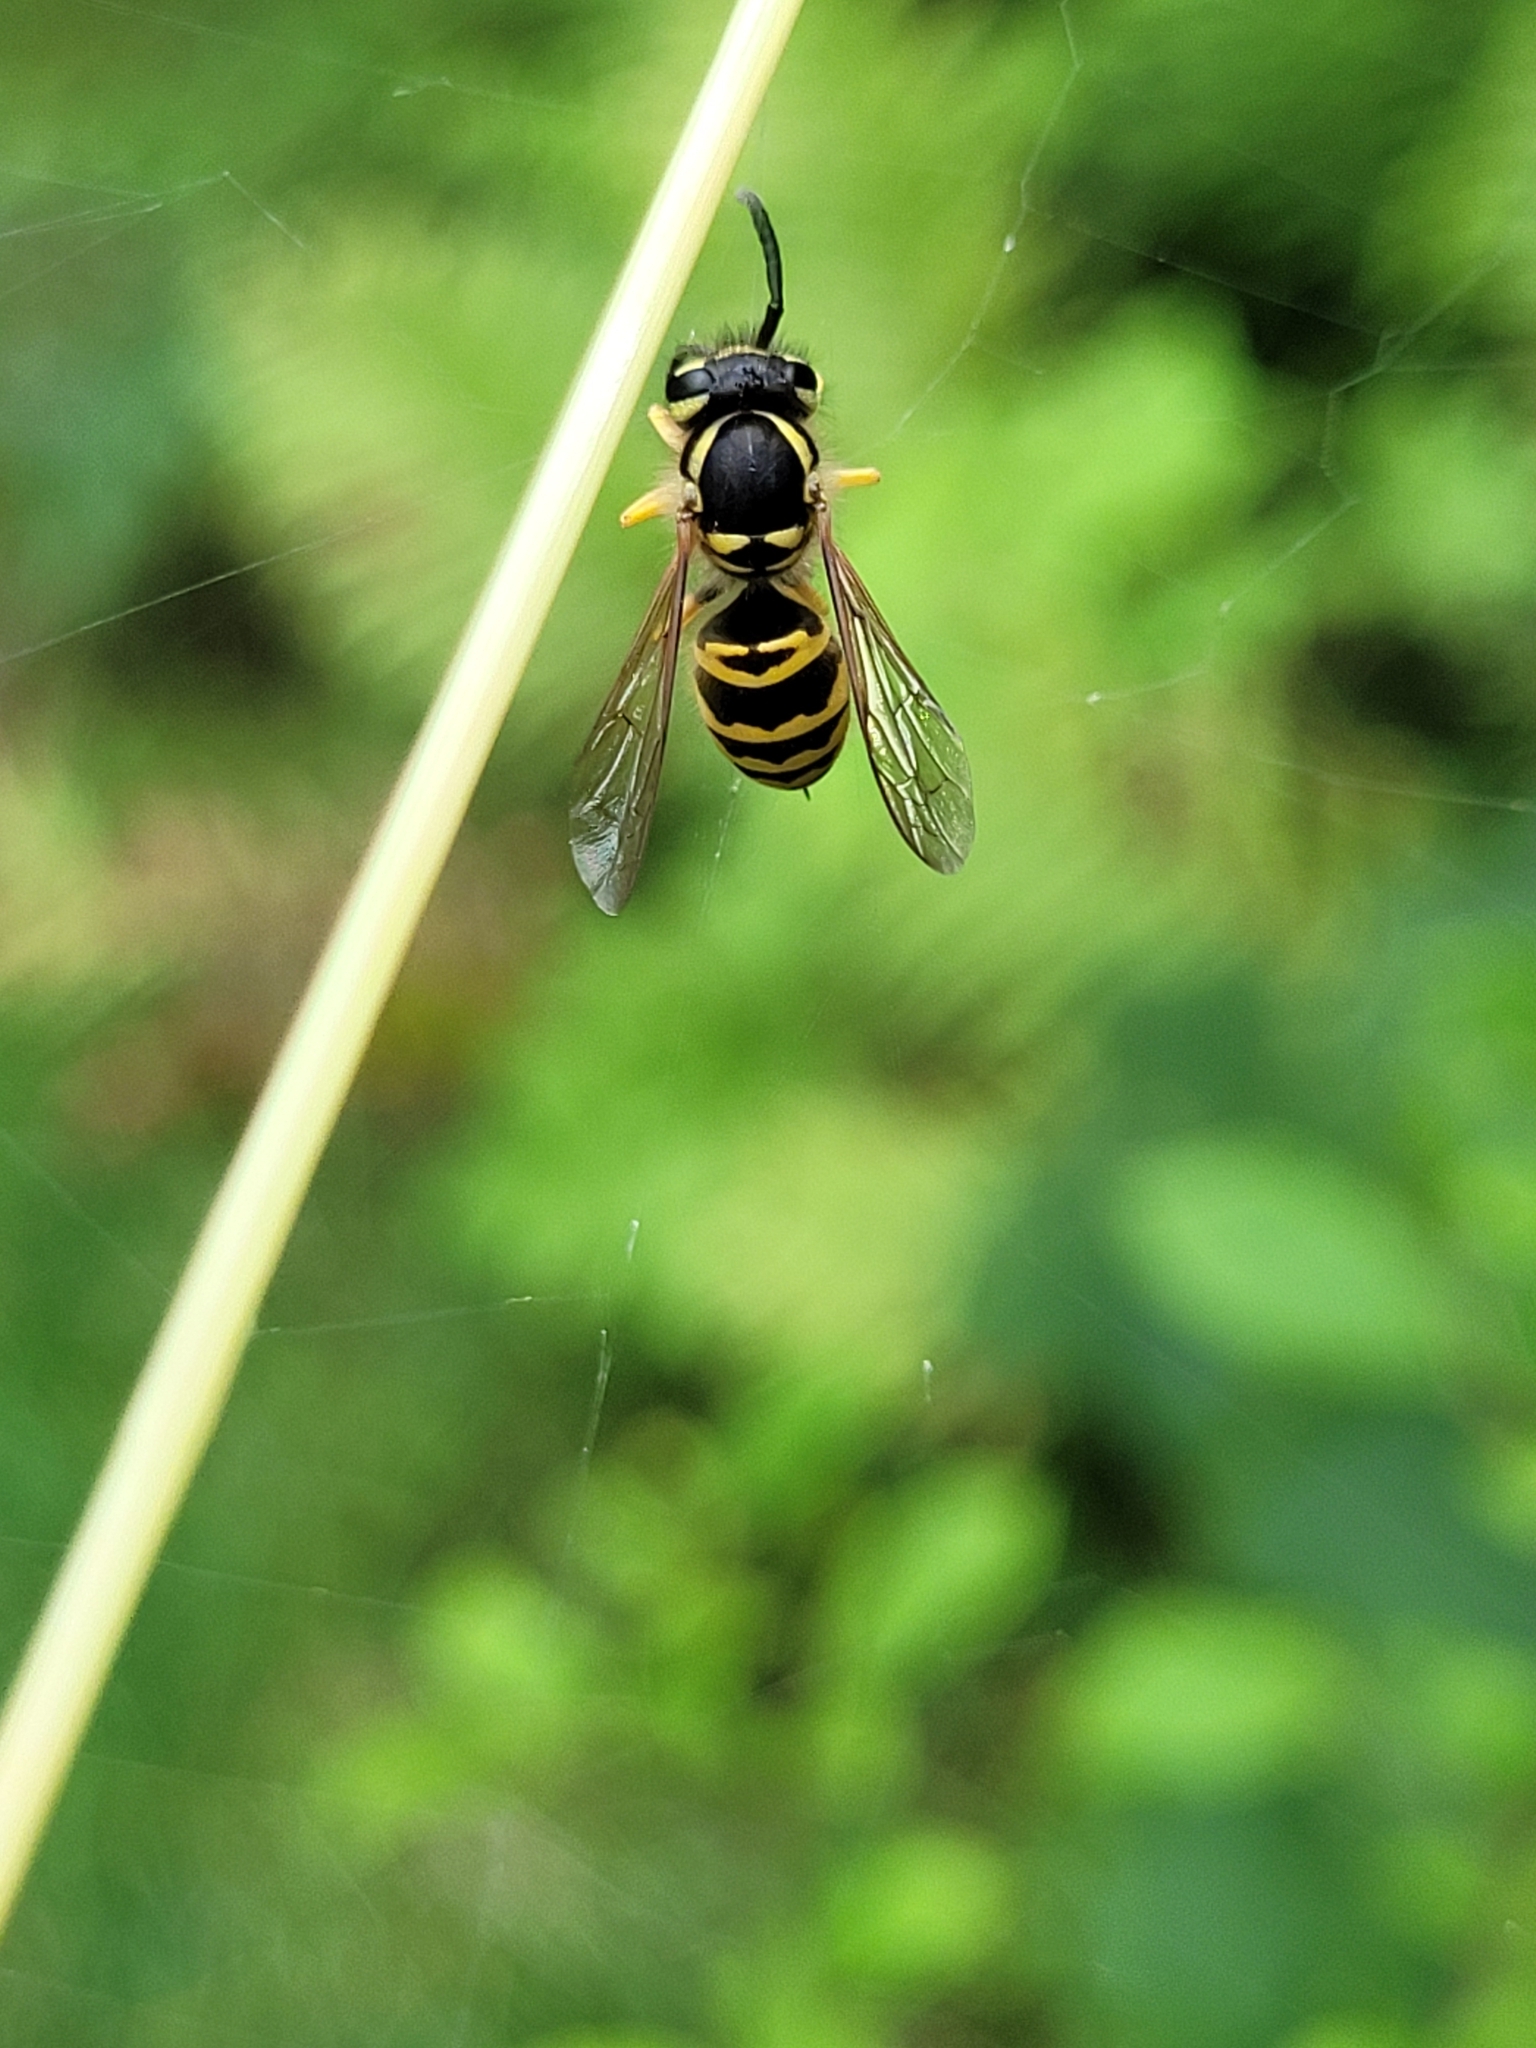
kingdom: Animalia
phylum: Arthropoda
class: Insecta
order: Hymenoptera
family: Vespidae
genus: Vespula
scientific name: Vespula maculifrons
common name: Eastern yellowjacket
